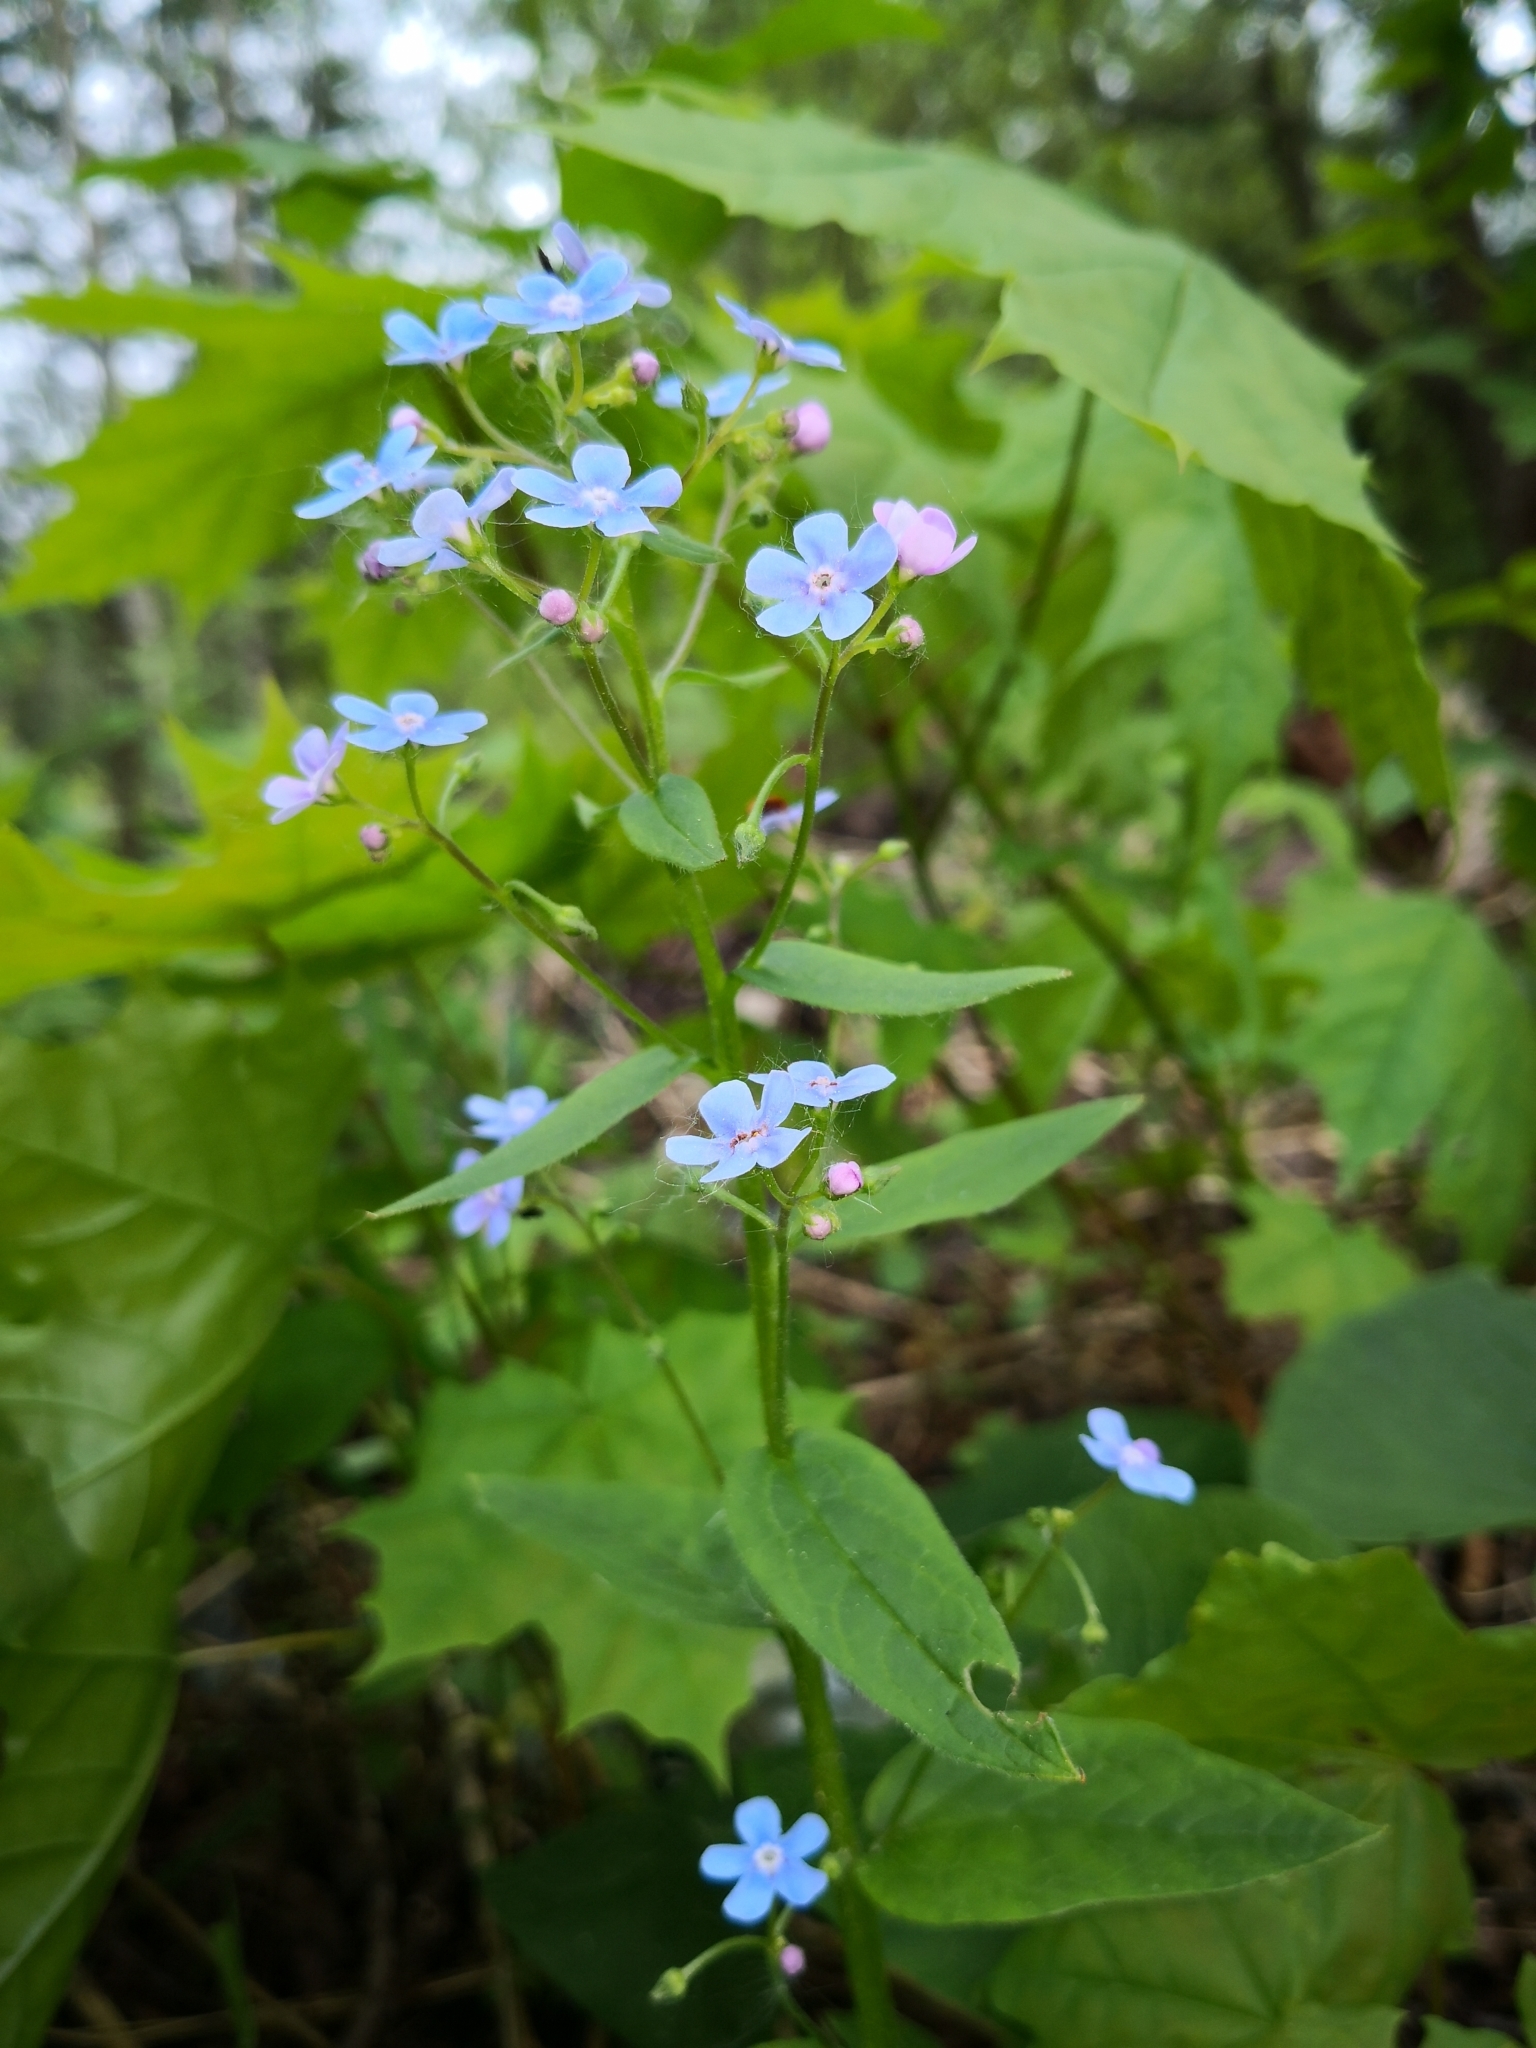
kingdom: Plantae
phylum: Tracheophyta
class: Magnoliopsida
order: Boraginales
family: Boraginaceae
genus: Brunnera
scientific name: Brunnera sibirica
